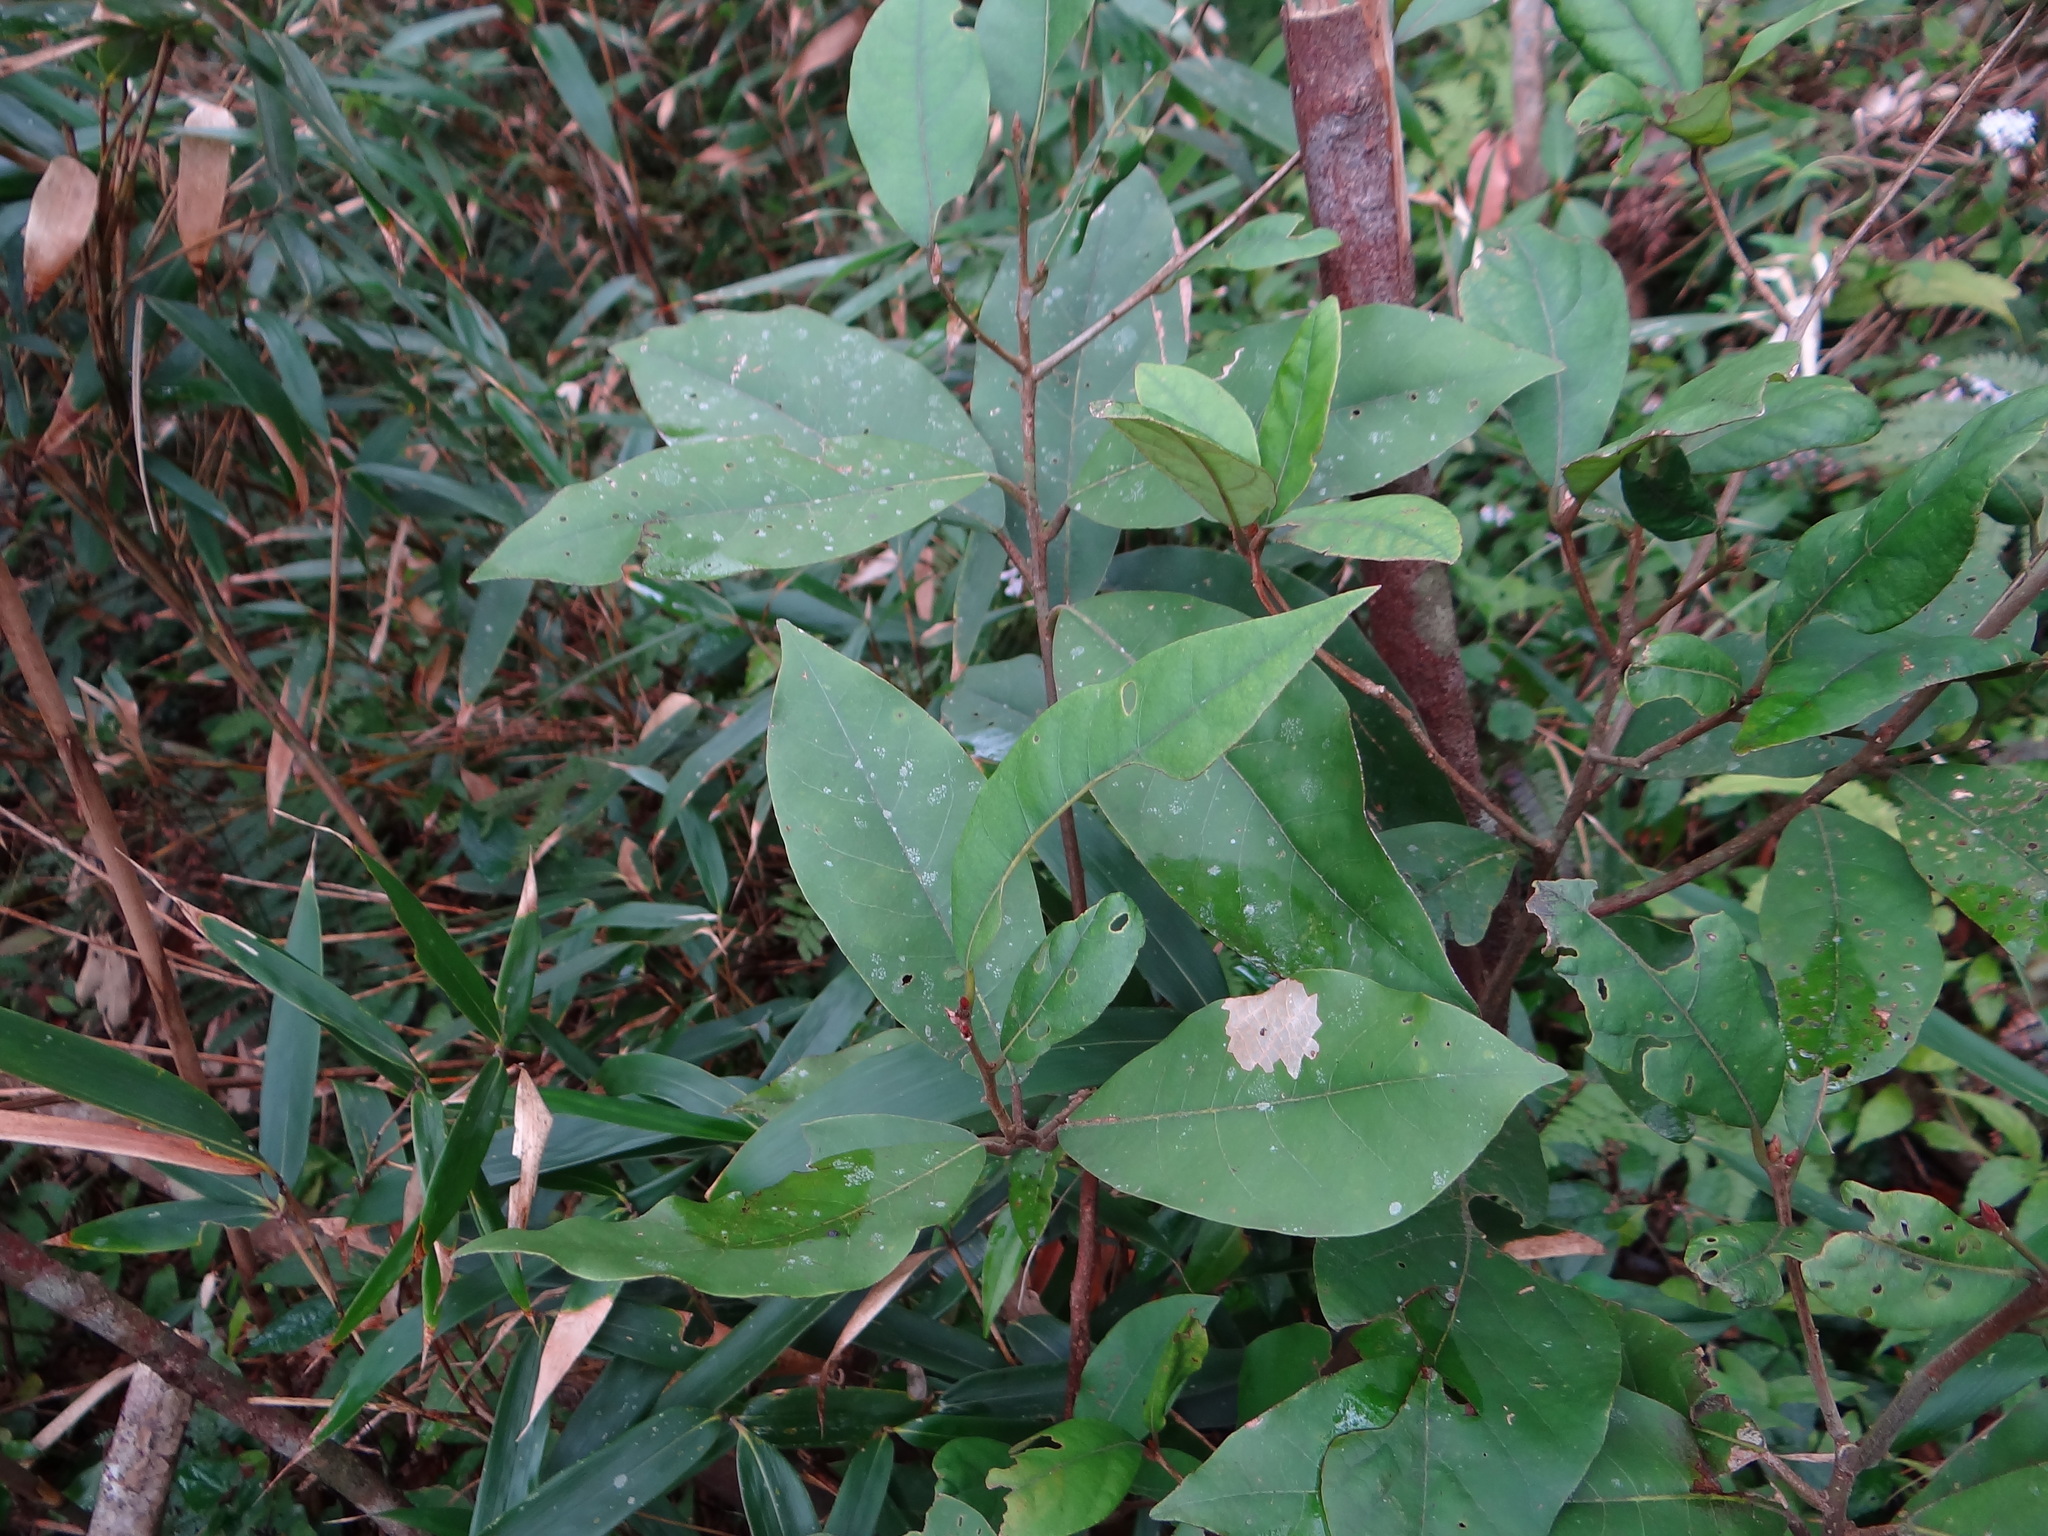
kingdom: Plantae
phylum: Tracheophyta
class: Magnoliopsida
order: Laurales
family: Lauraceae
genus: Litsea
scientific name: Litsea akoensis
